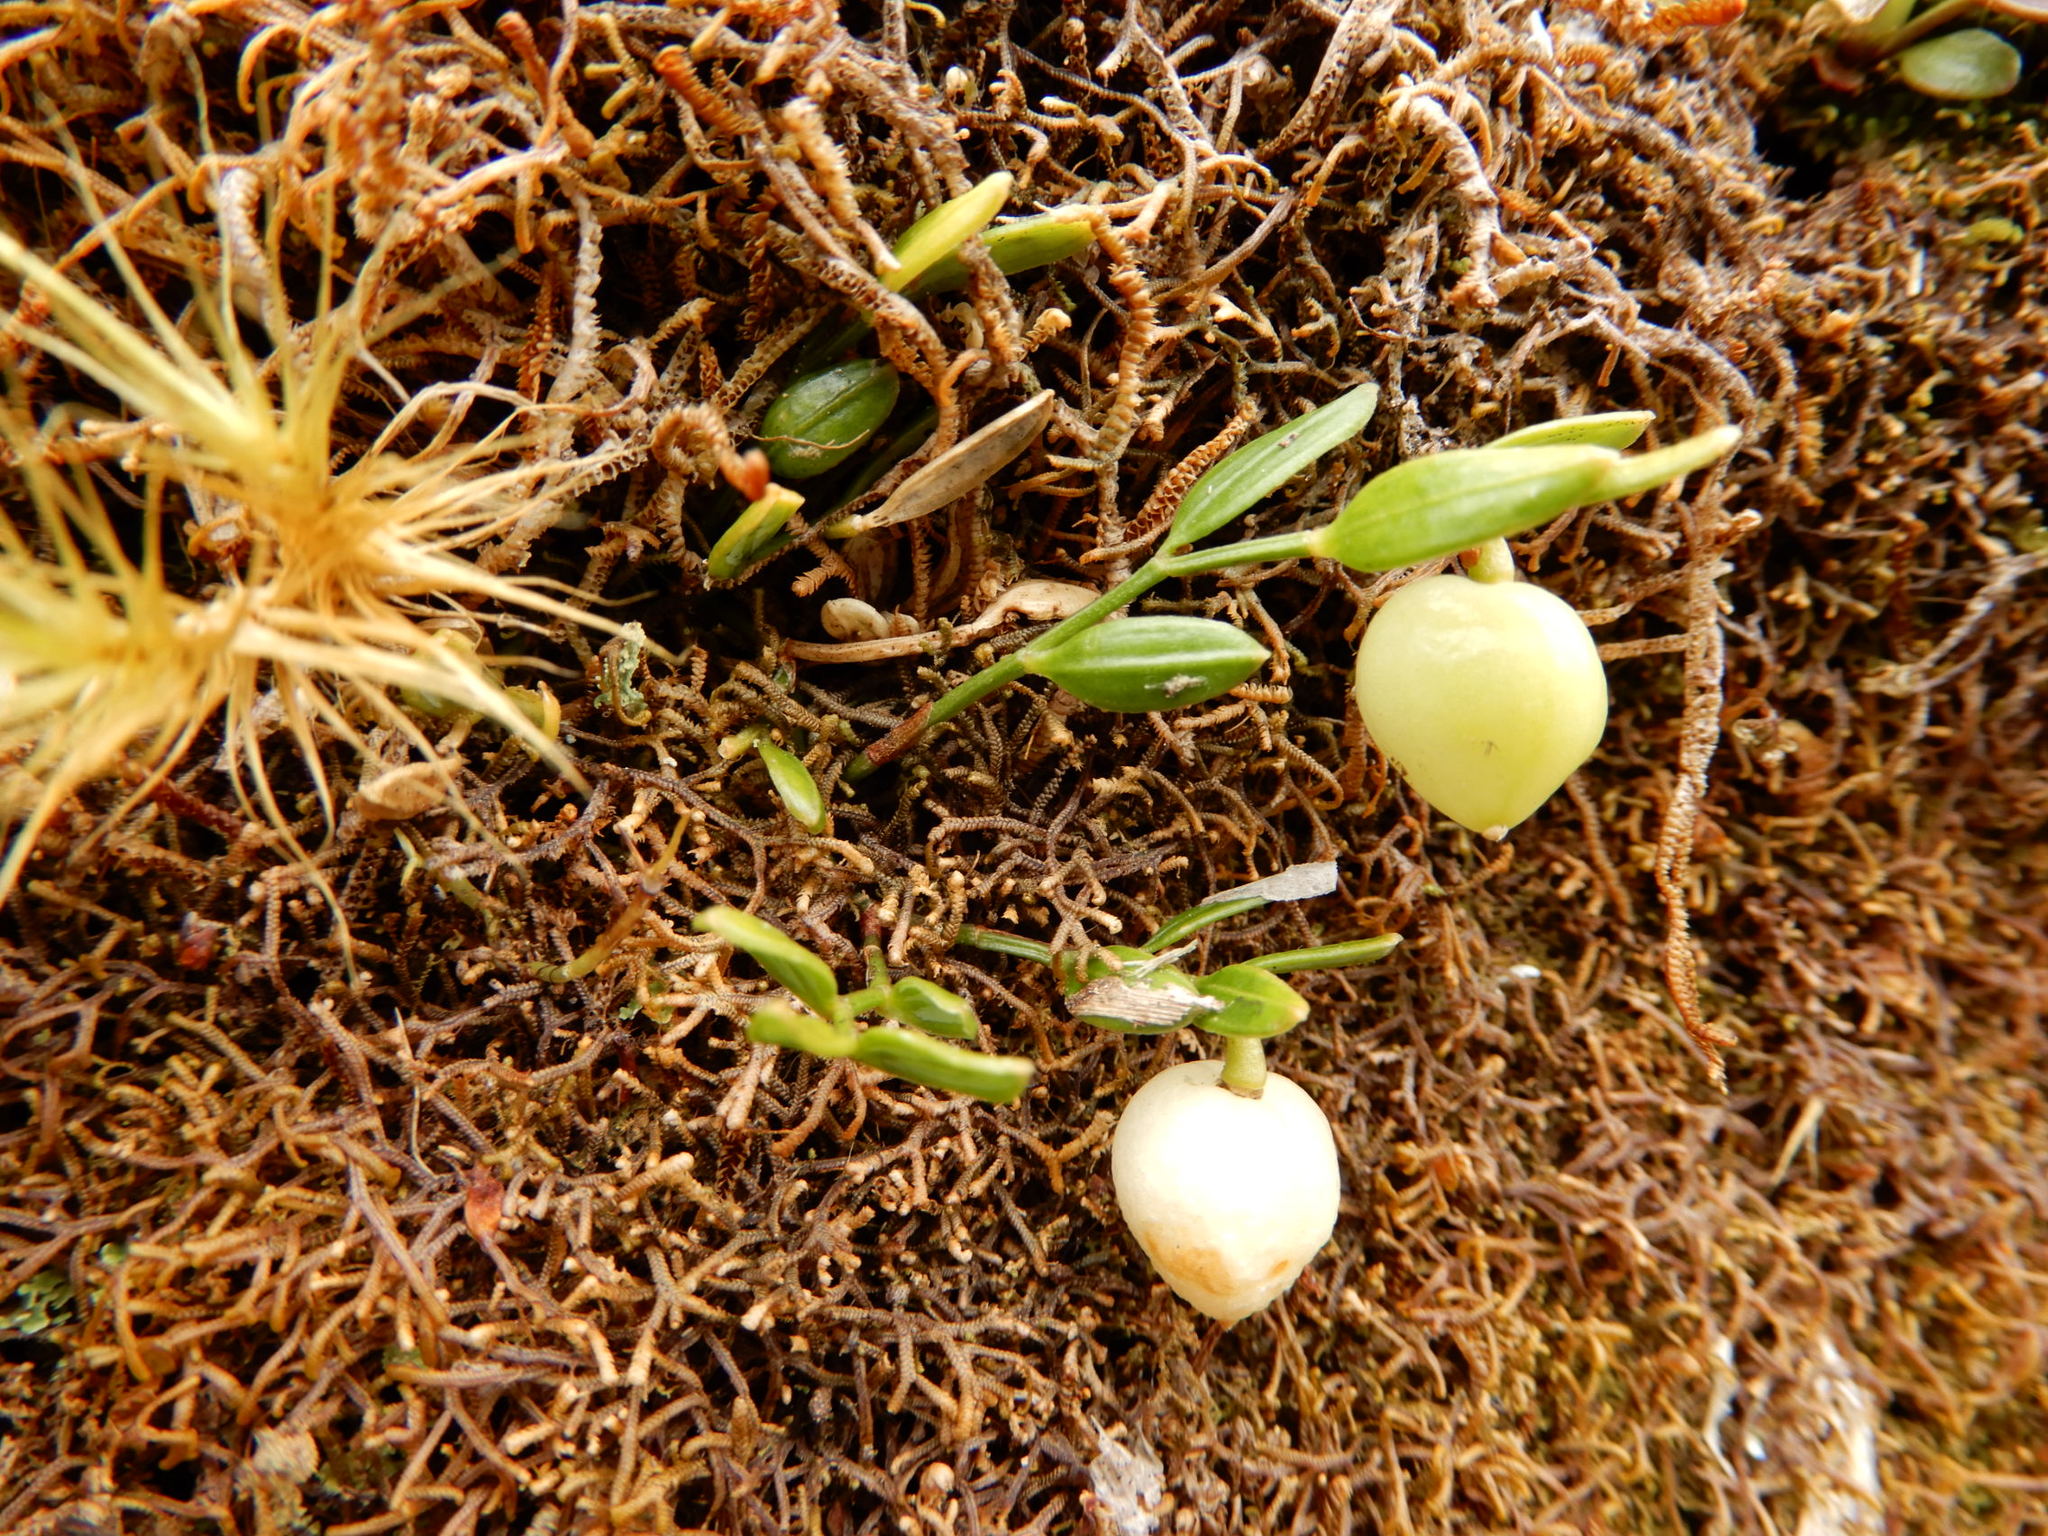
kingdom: Plantae
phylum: Tracheophyta
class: Liliopsida
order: Liliales
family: Alstroemeriaceae
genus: Luzuriaga
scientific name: Luzuriaga parviflora
